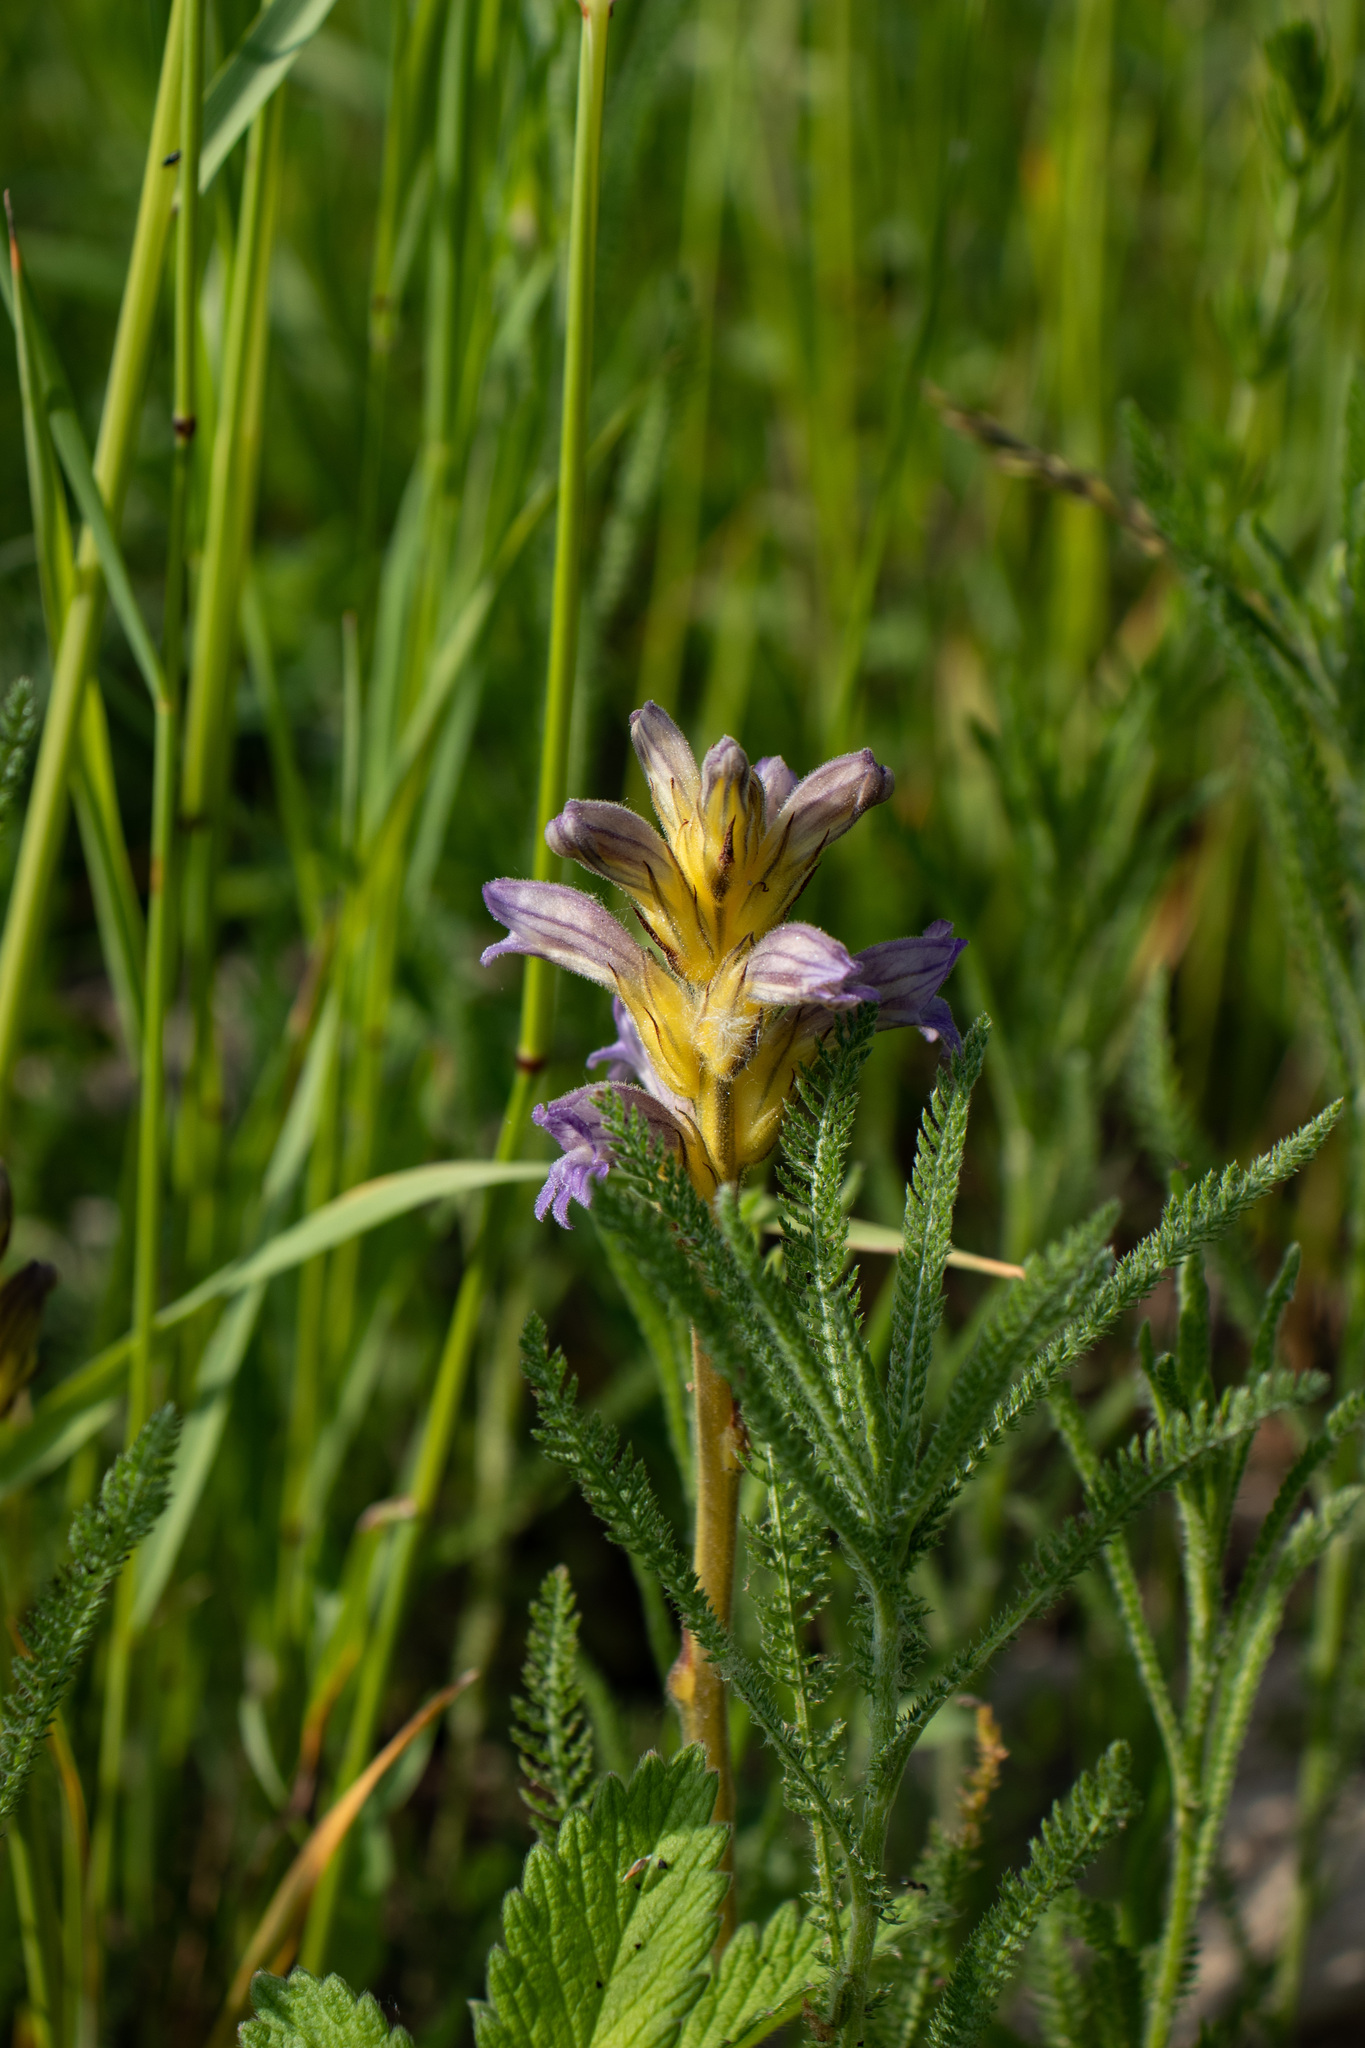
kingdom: Plantae
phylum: Tracheophyta
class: Magnoliopsida
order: Lamiales
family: Orobanchaceae
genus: Phelipanche
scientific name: Phelipanche purpurea
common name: Purple broomrape
